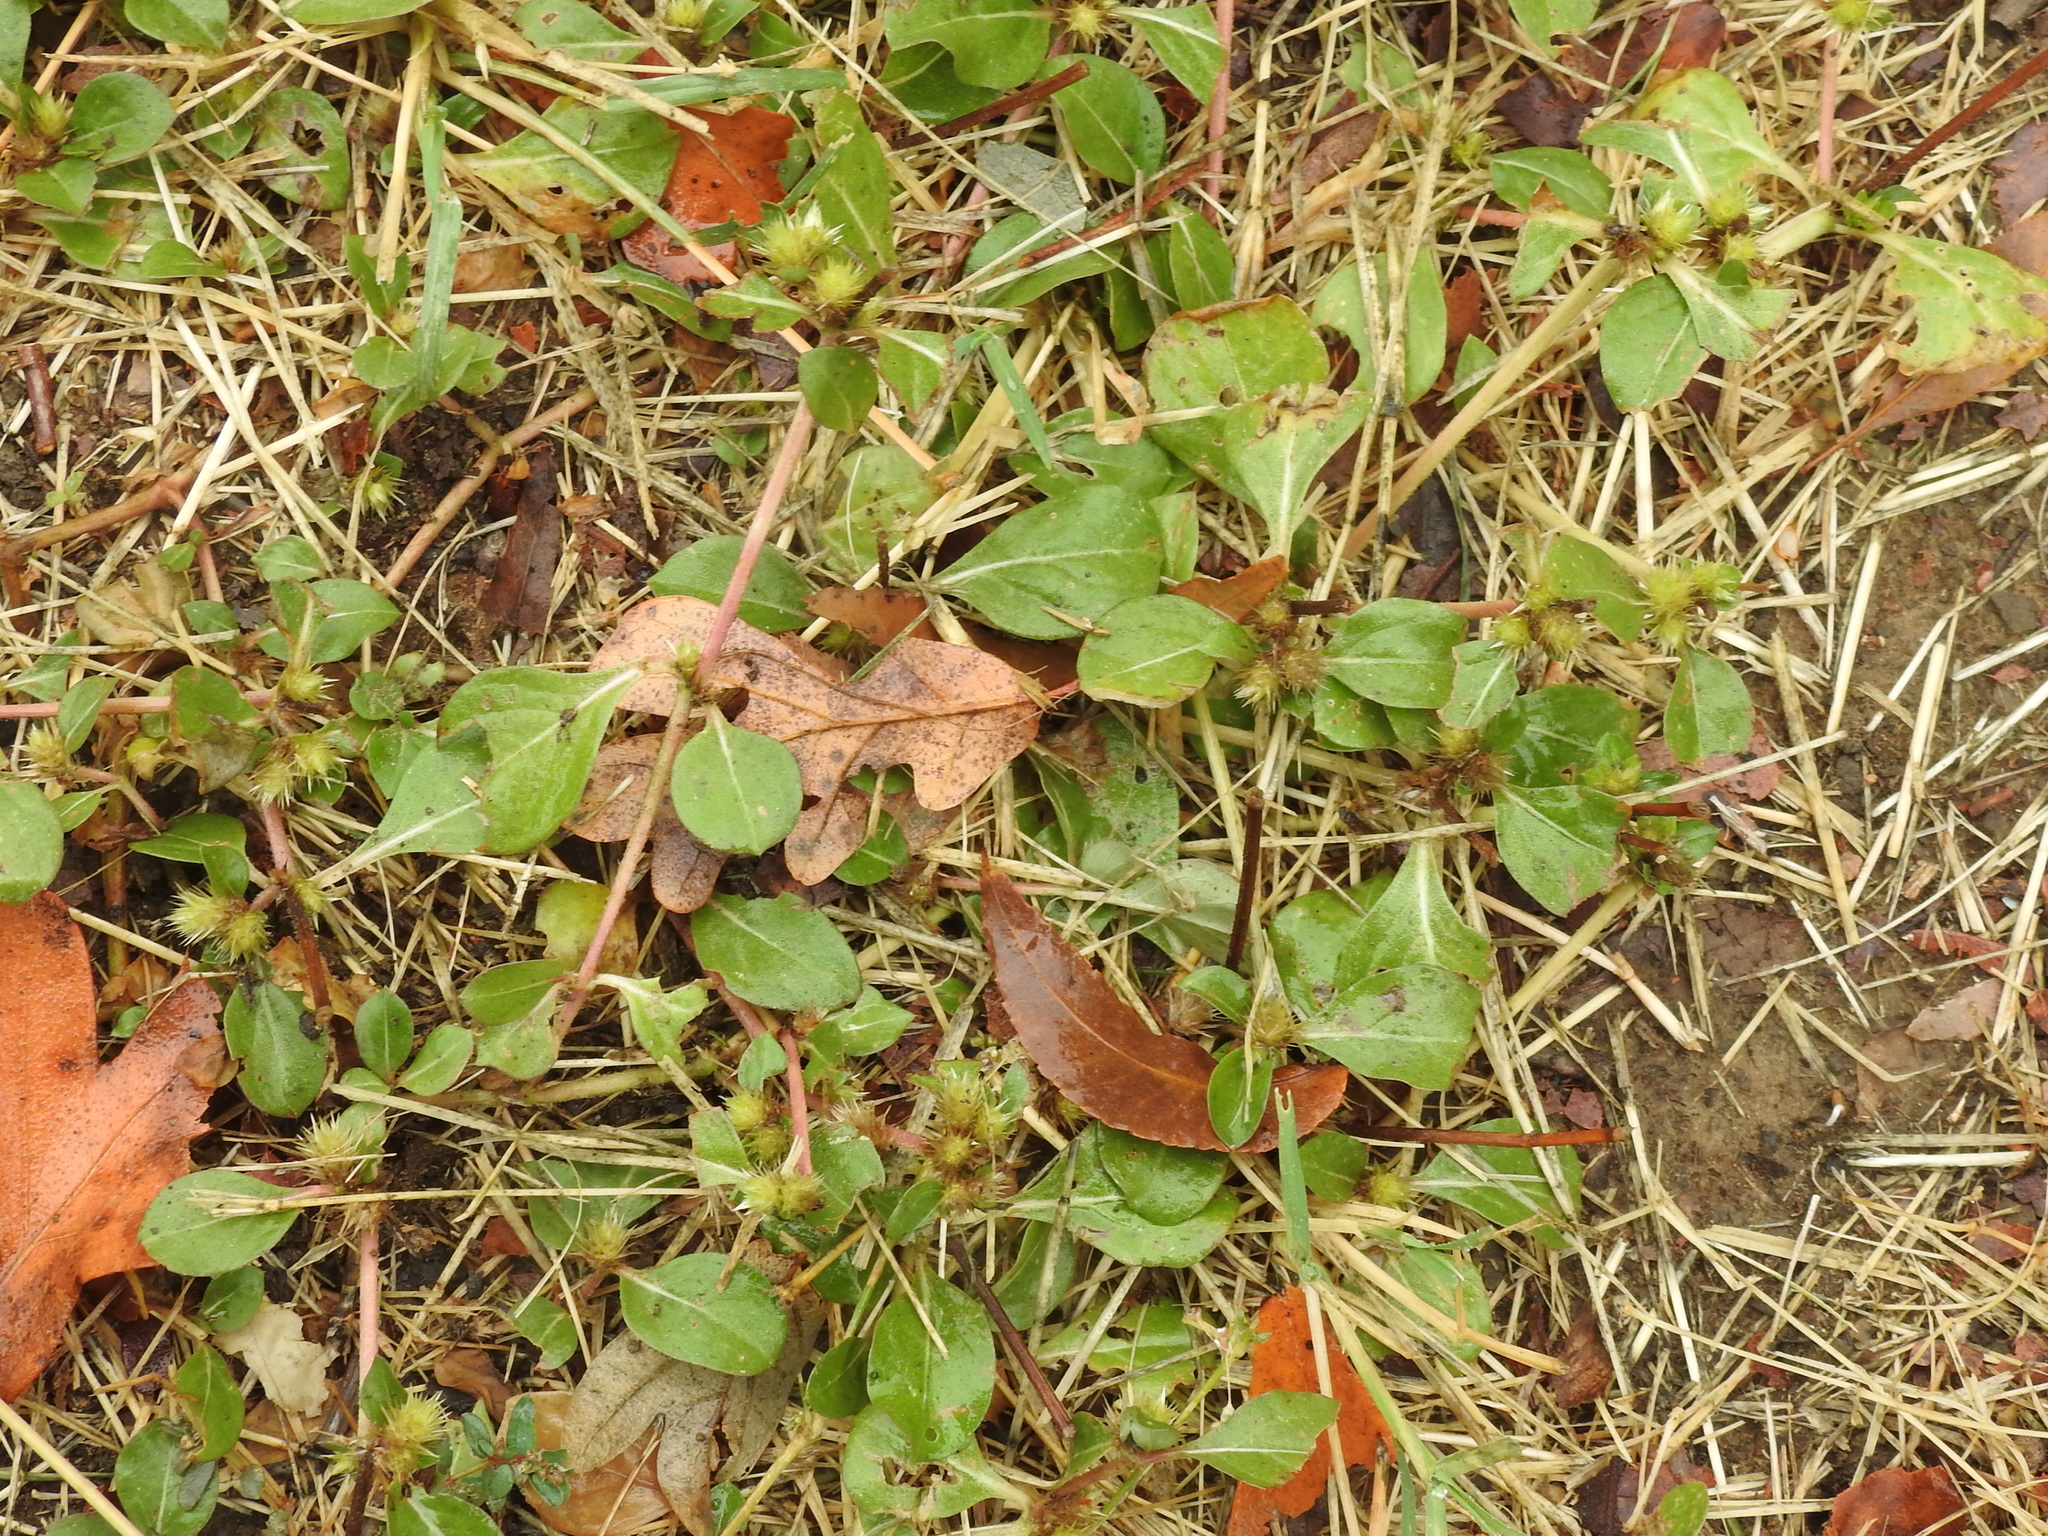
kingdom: Plantae
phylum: Tracheophyta
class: Magnoliopsida
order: Caryophyllales
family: Amaranthaceae
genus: Alternanthera
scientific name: Alternanthera pungens
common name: Khakiweed
